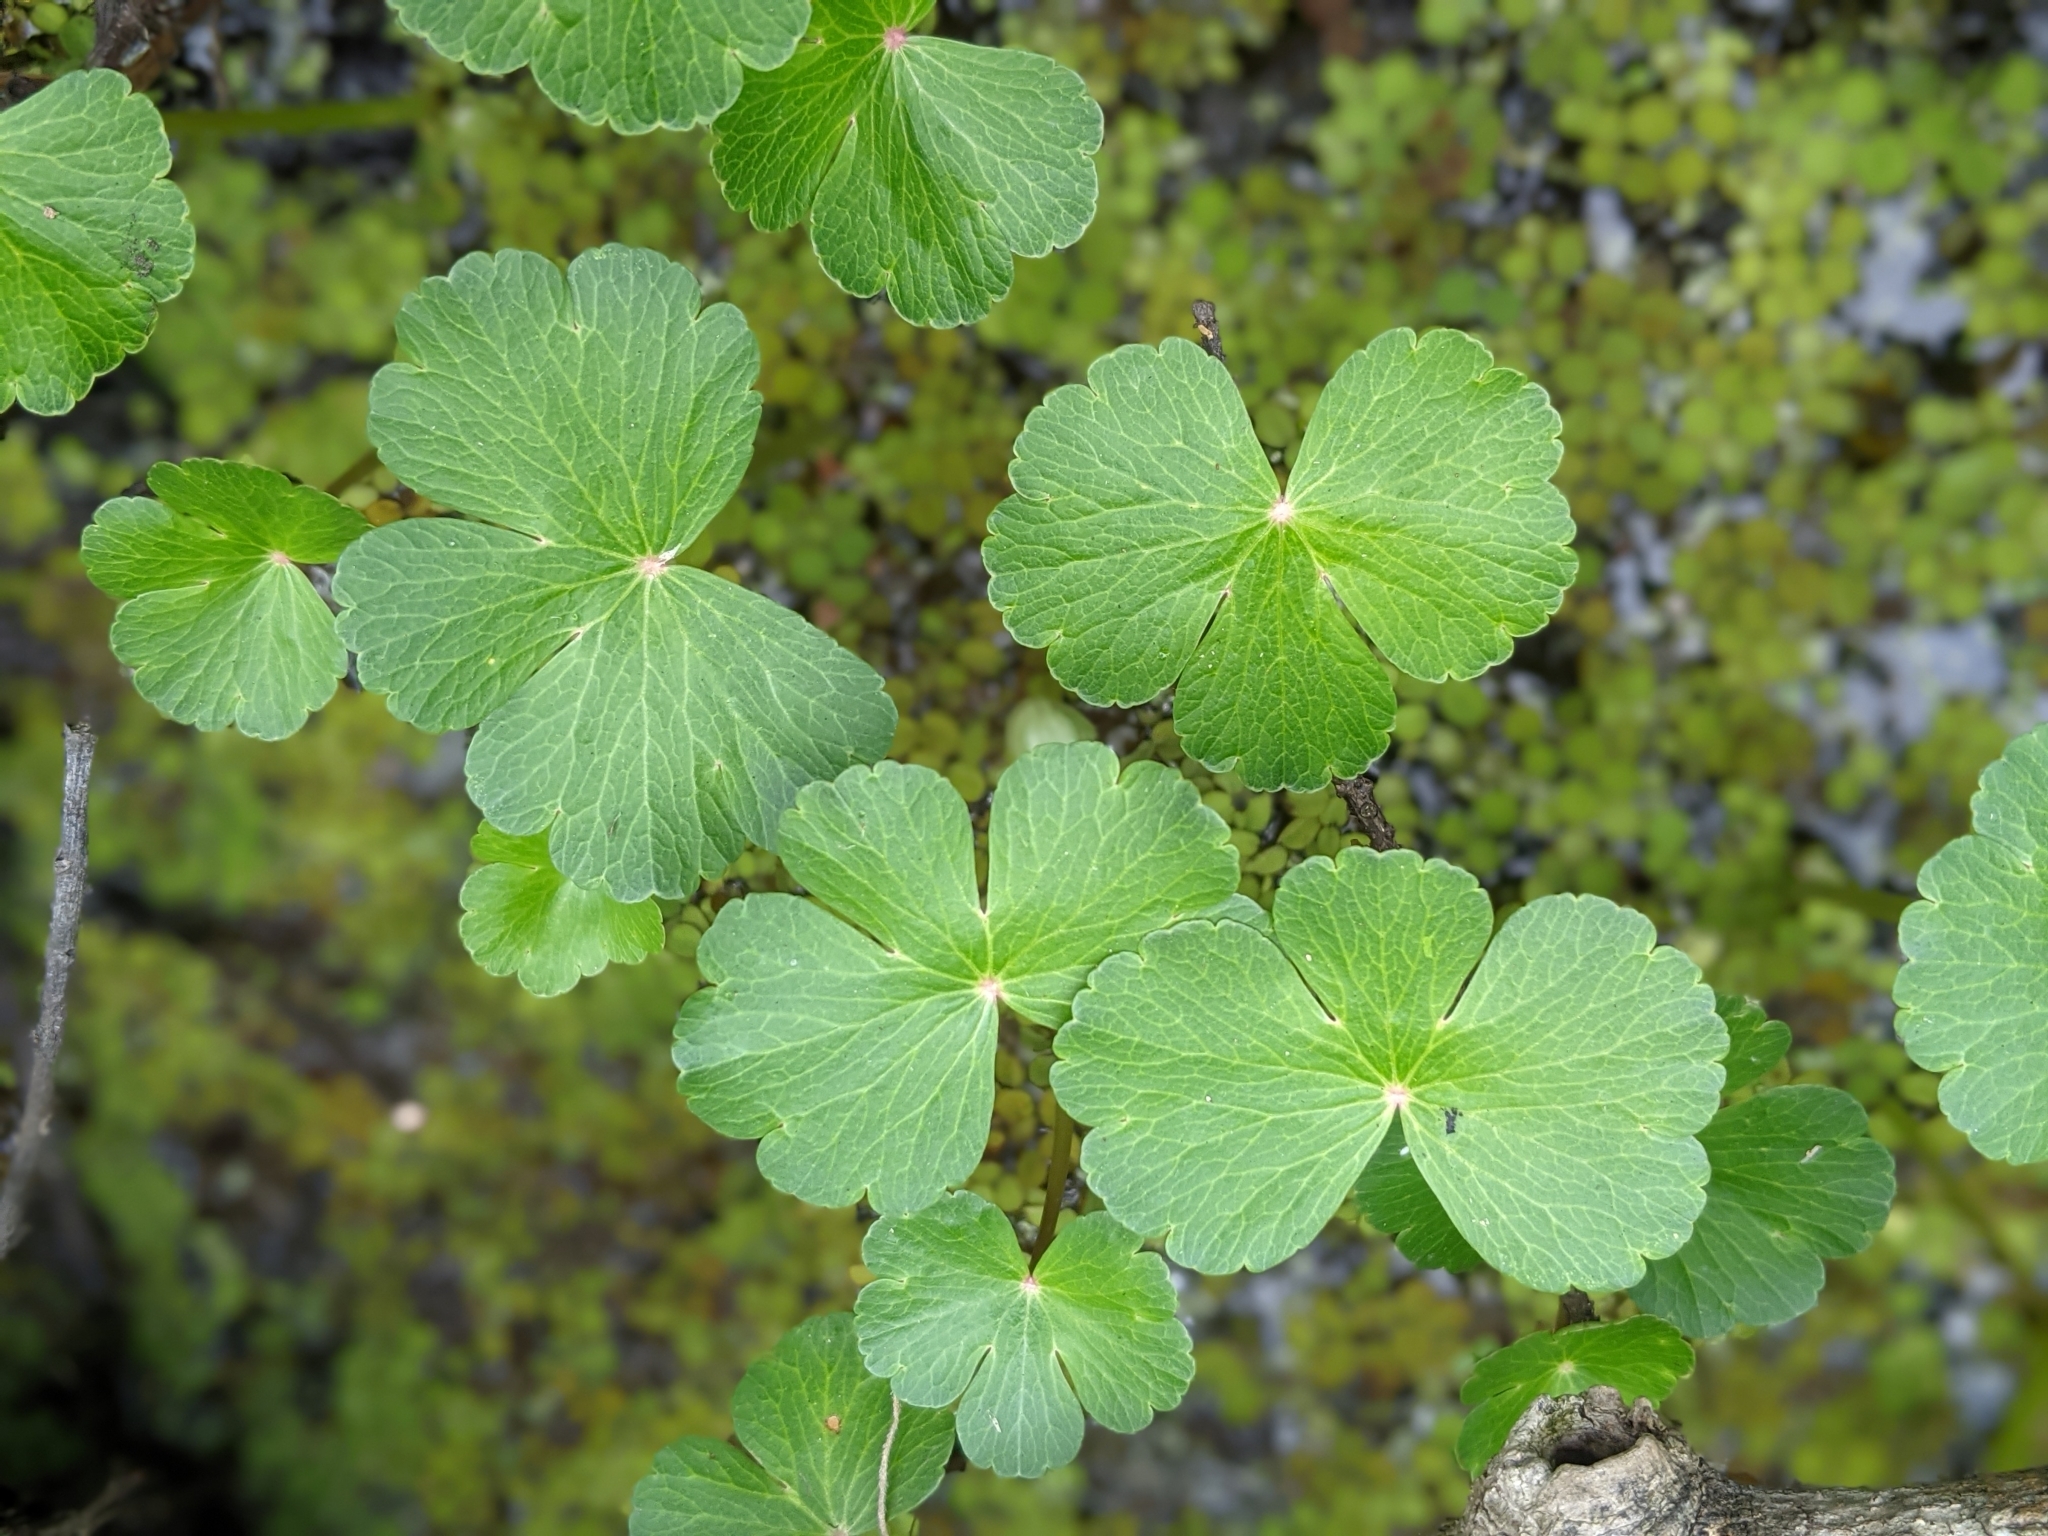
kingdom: Plantae
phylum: Tracheophyta
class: Magnoliopsida
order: Apiales
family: Araliaceae
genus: Hydrocotyle
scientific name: Hydrocotyle ranunculoides
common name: Floating pennywort
